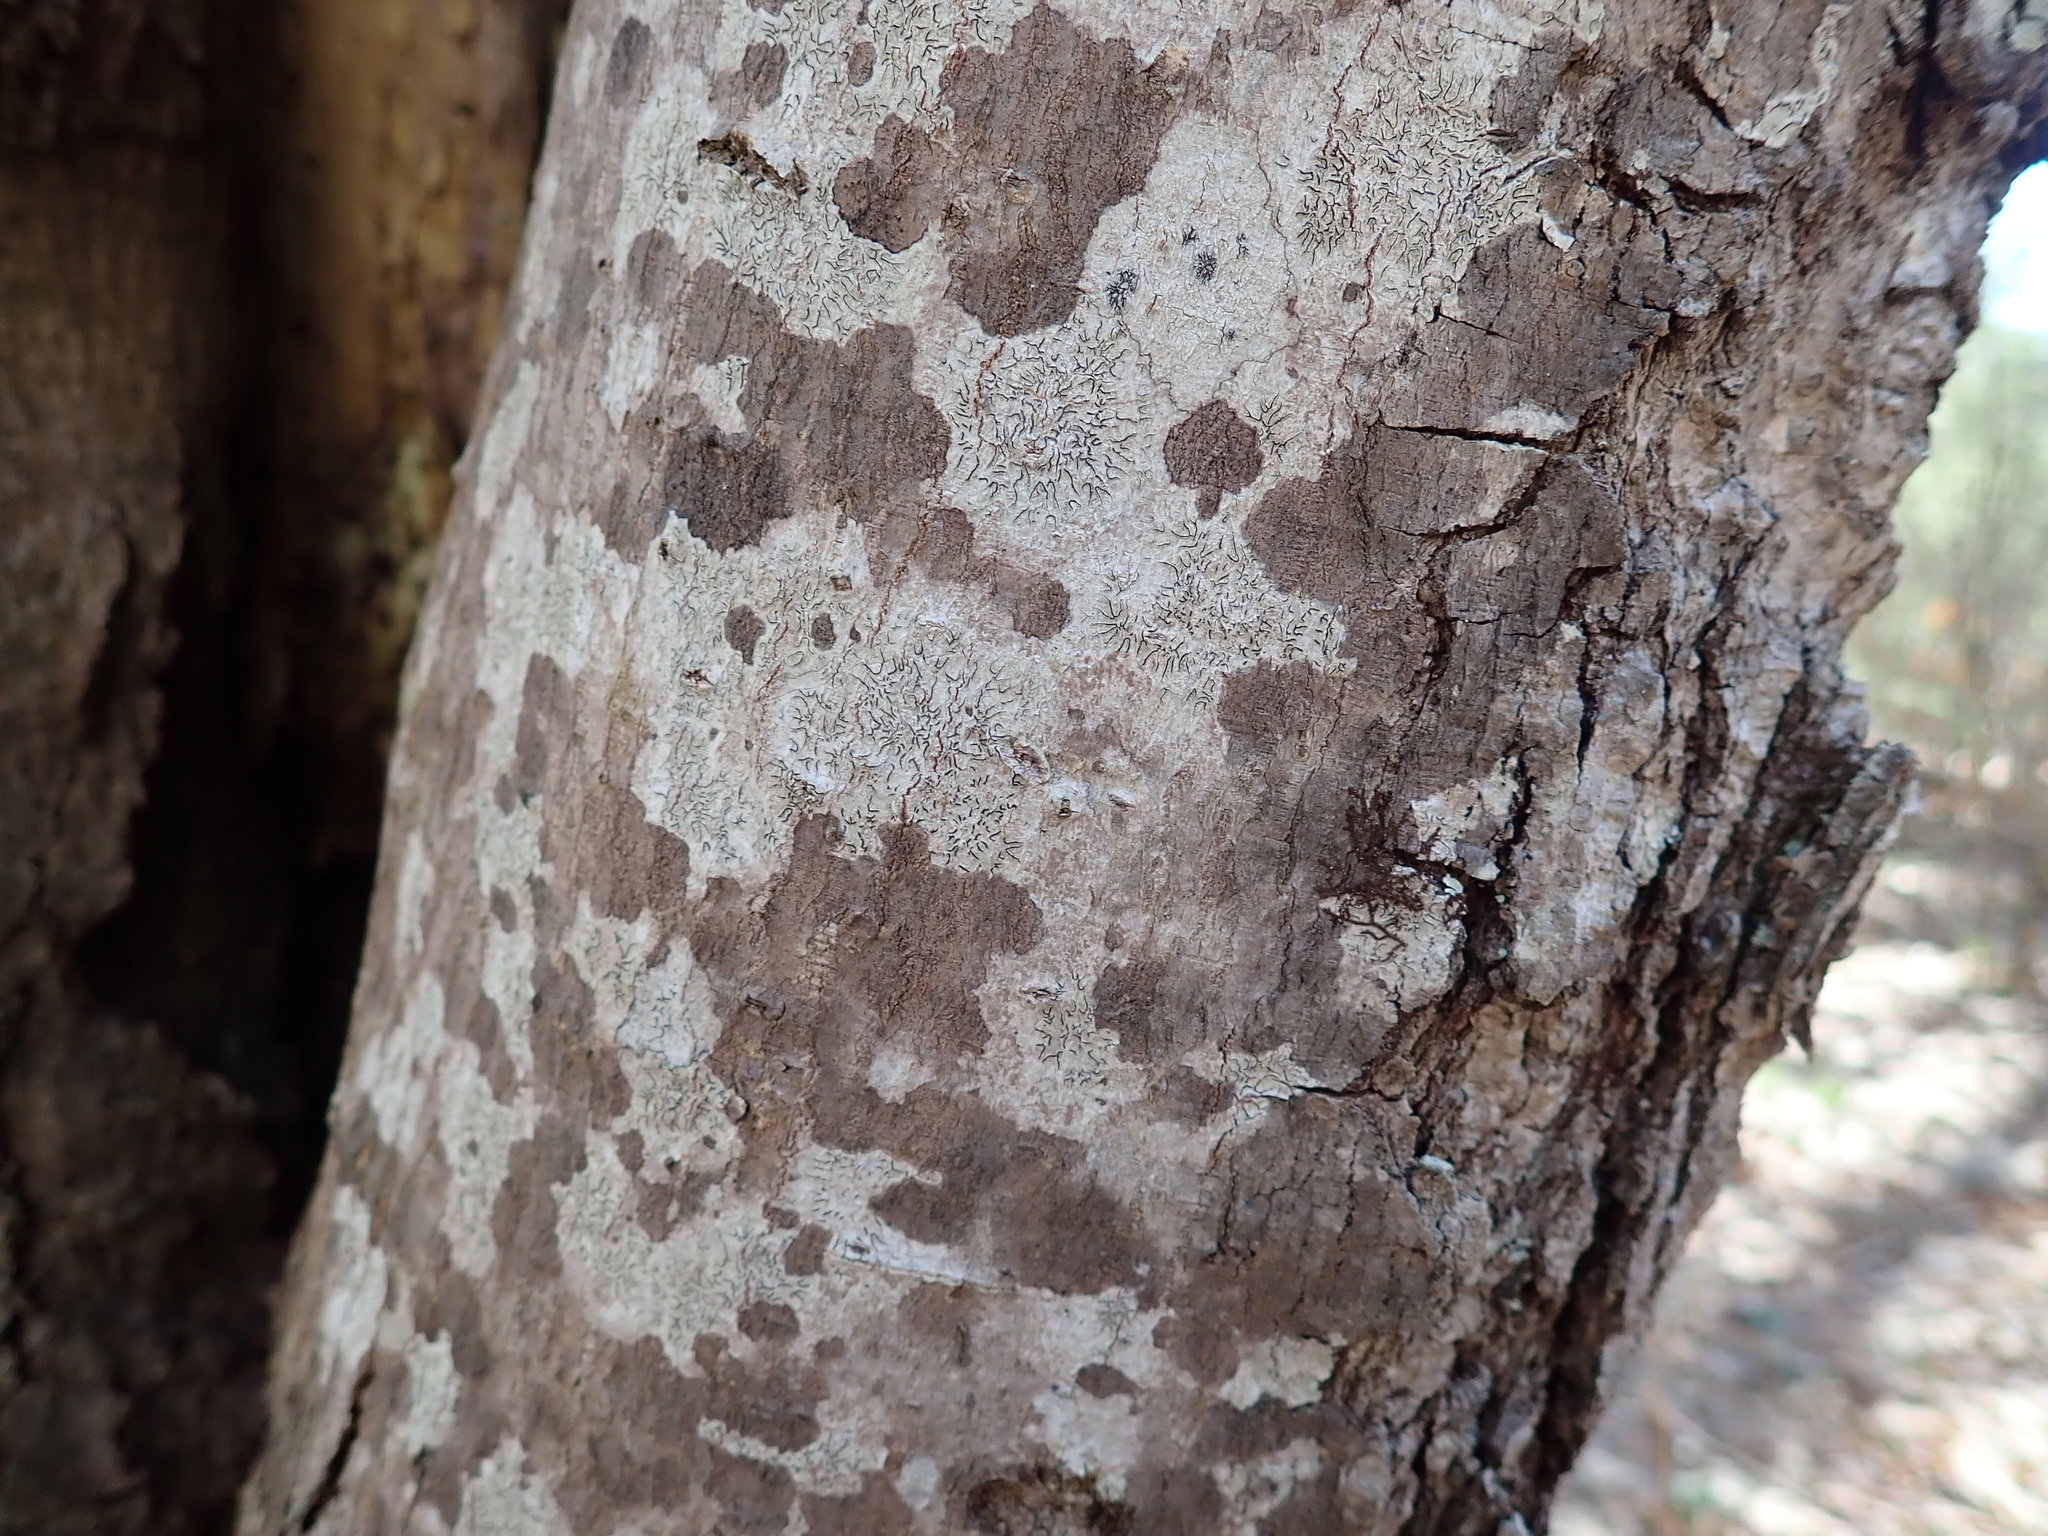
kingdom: Fungi
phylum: Ascomycota
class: Lecanoromycetes
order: Ostropales
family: Graphidaceae
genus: Graphis
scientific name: Graphis scripta
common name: Script lichen
